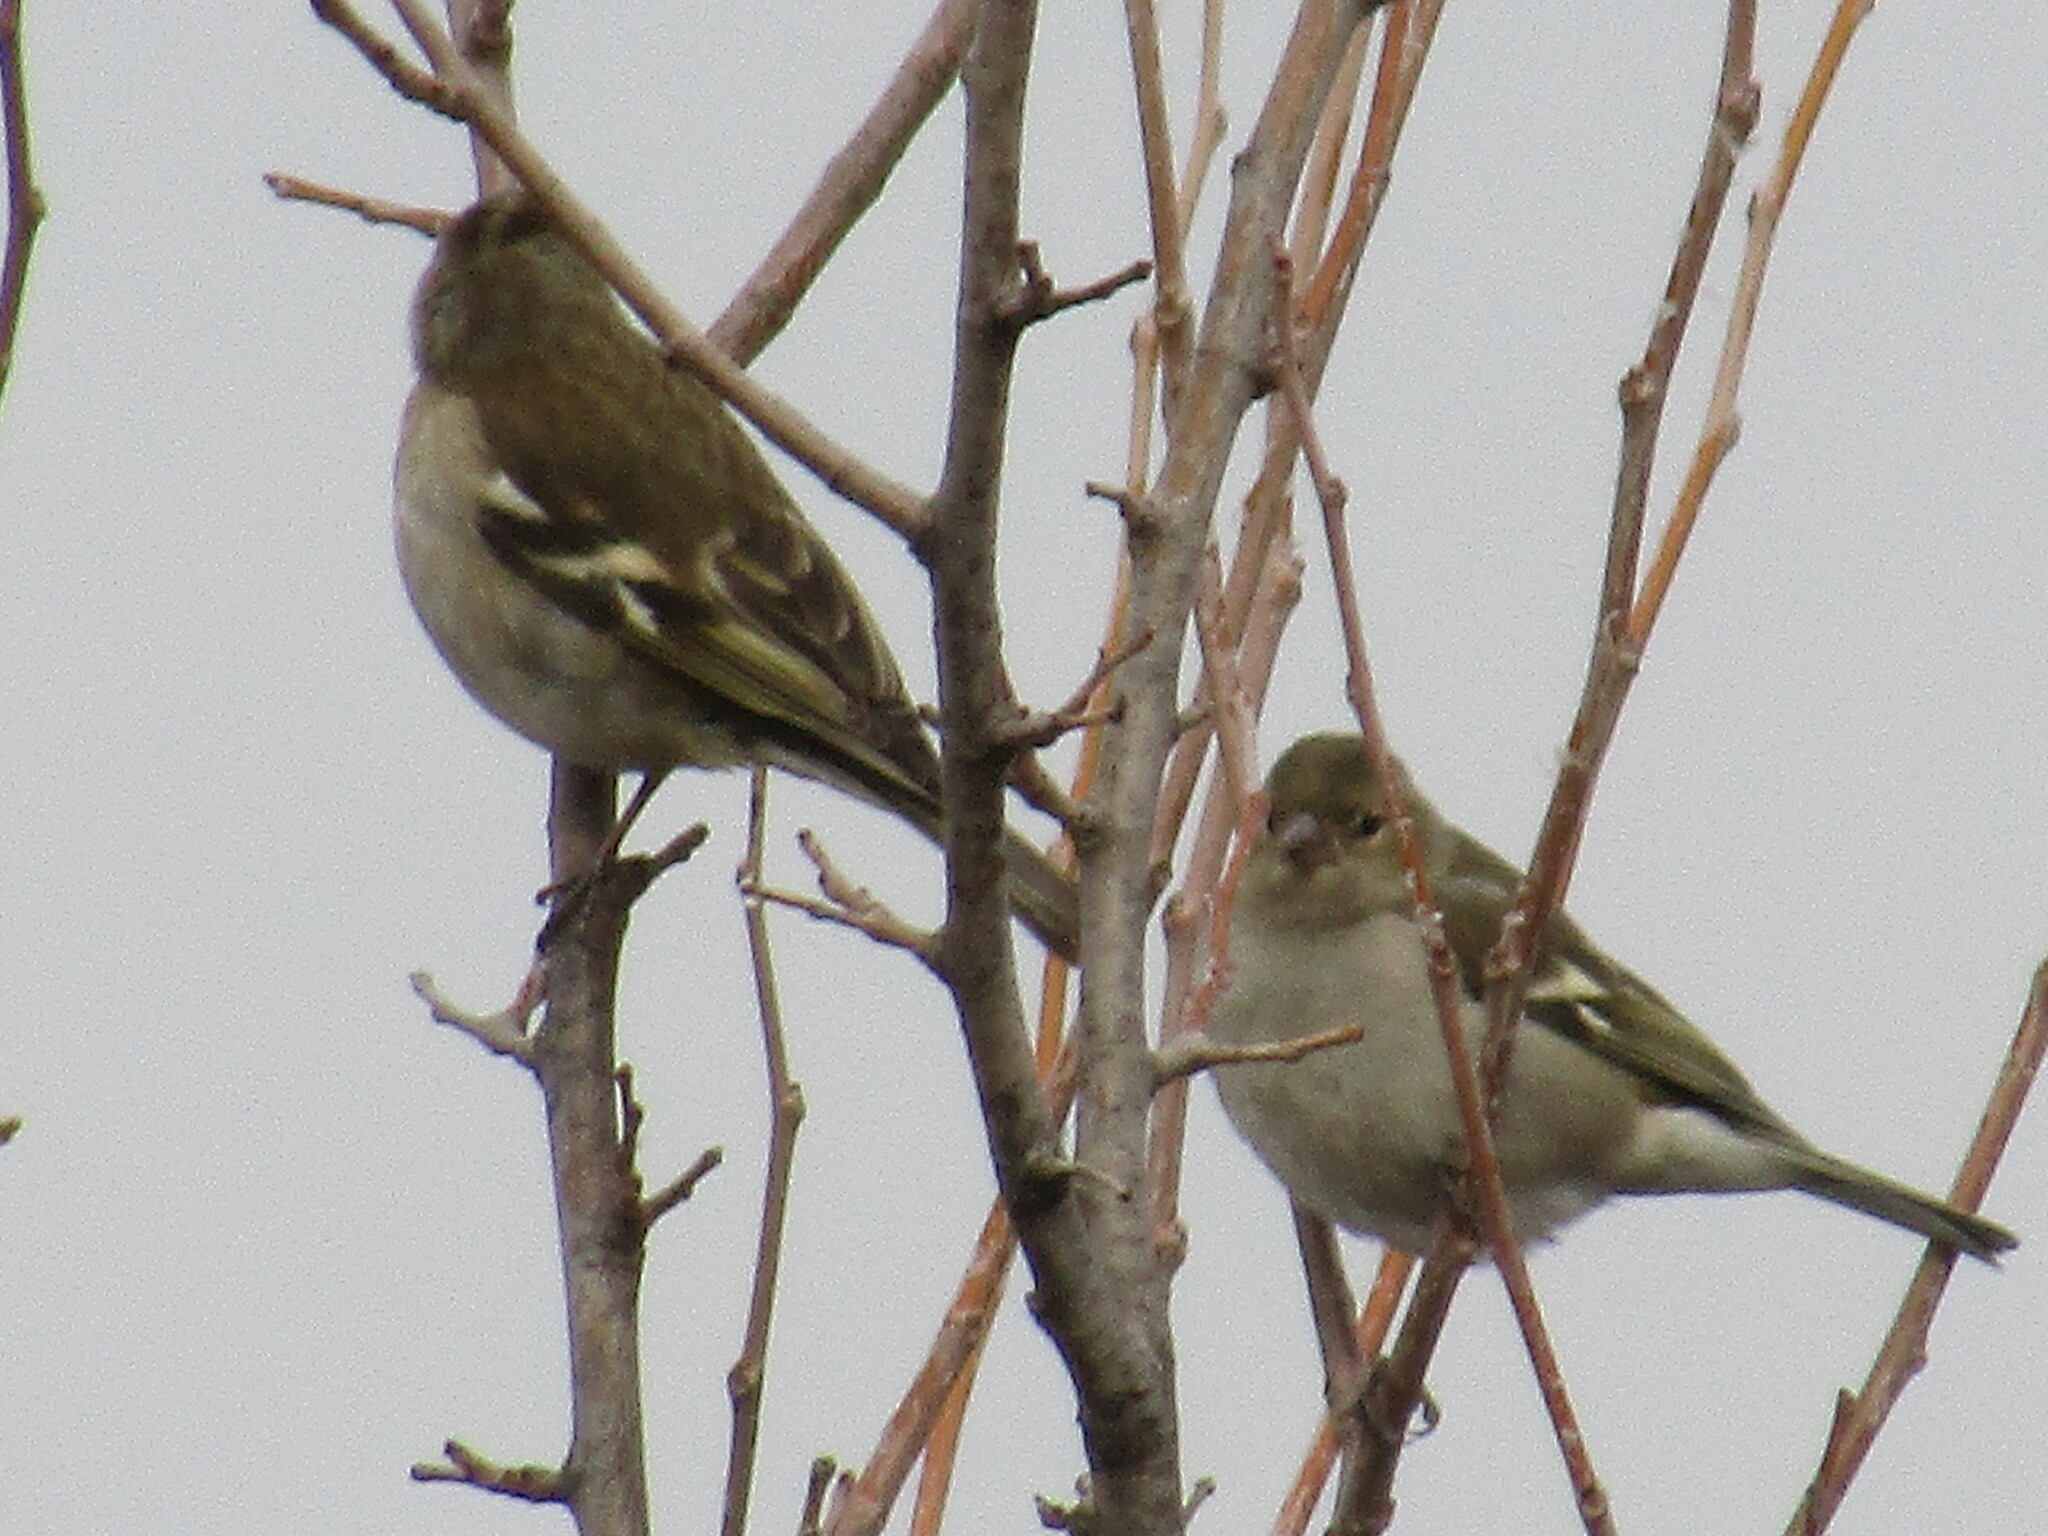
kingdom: Animalia
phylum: Chordata
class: Aves
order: Passeriformes
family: Fringillidae
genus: Fringilla
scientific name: Fringilla coelebs
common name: Common chaffinch
